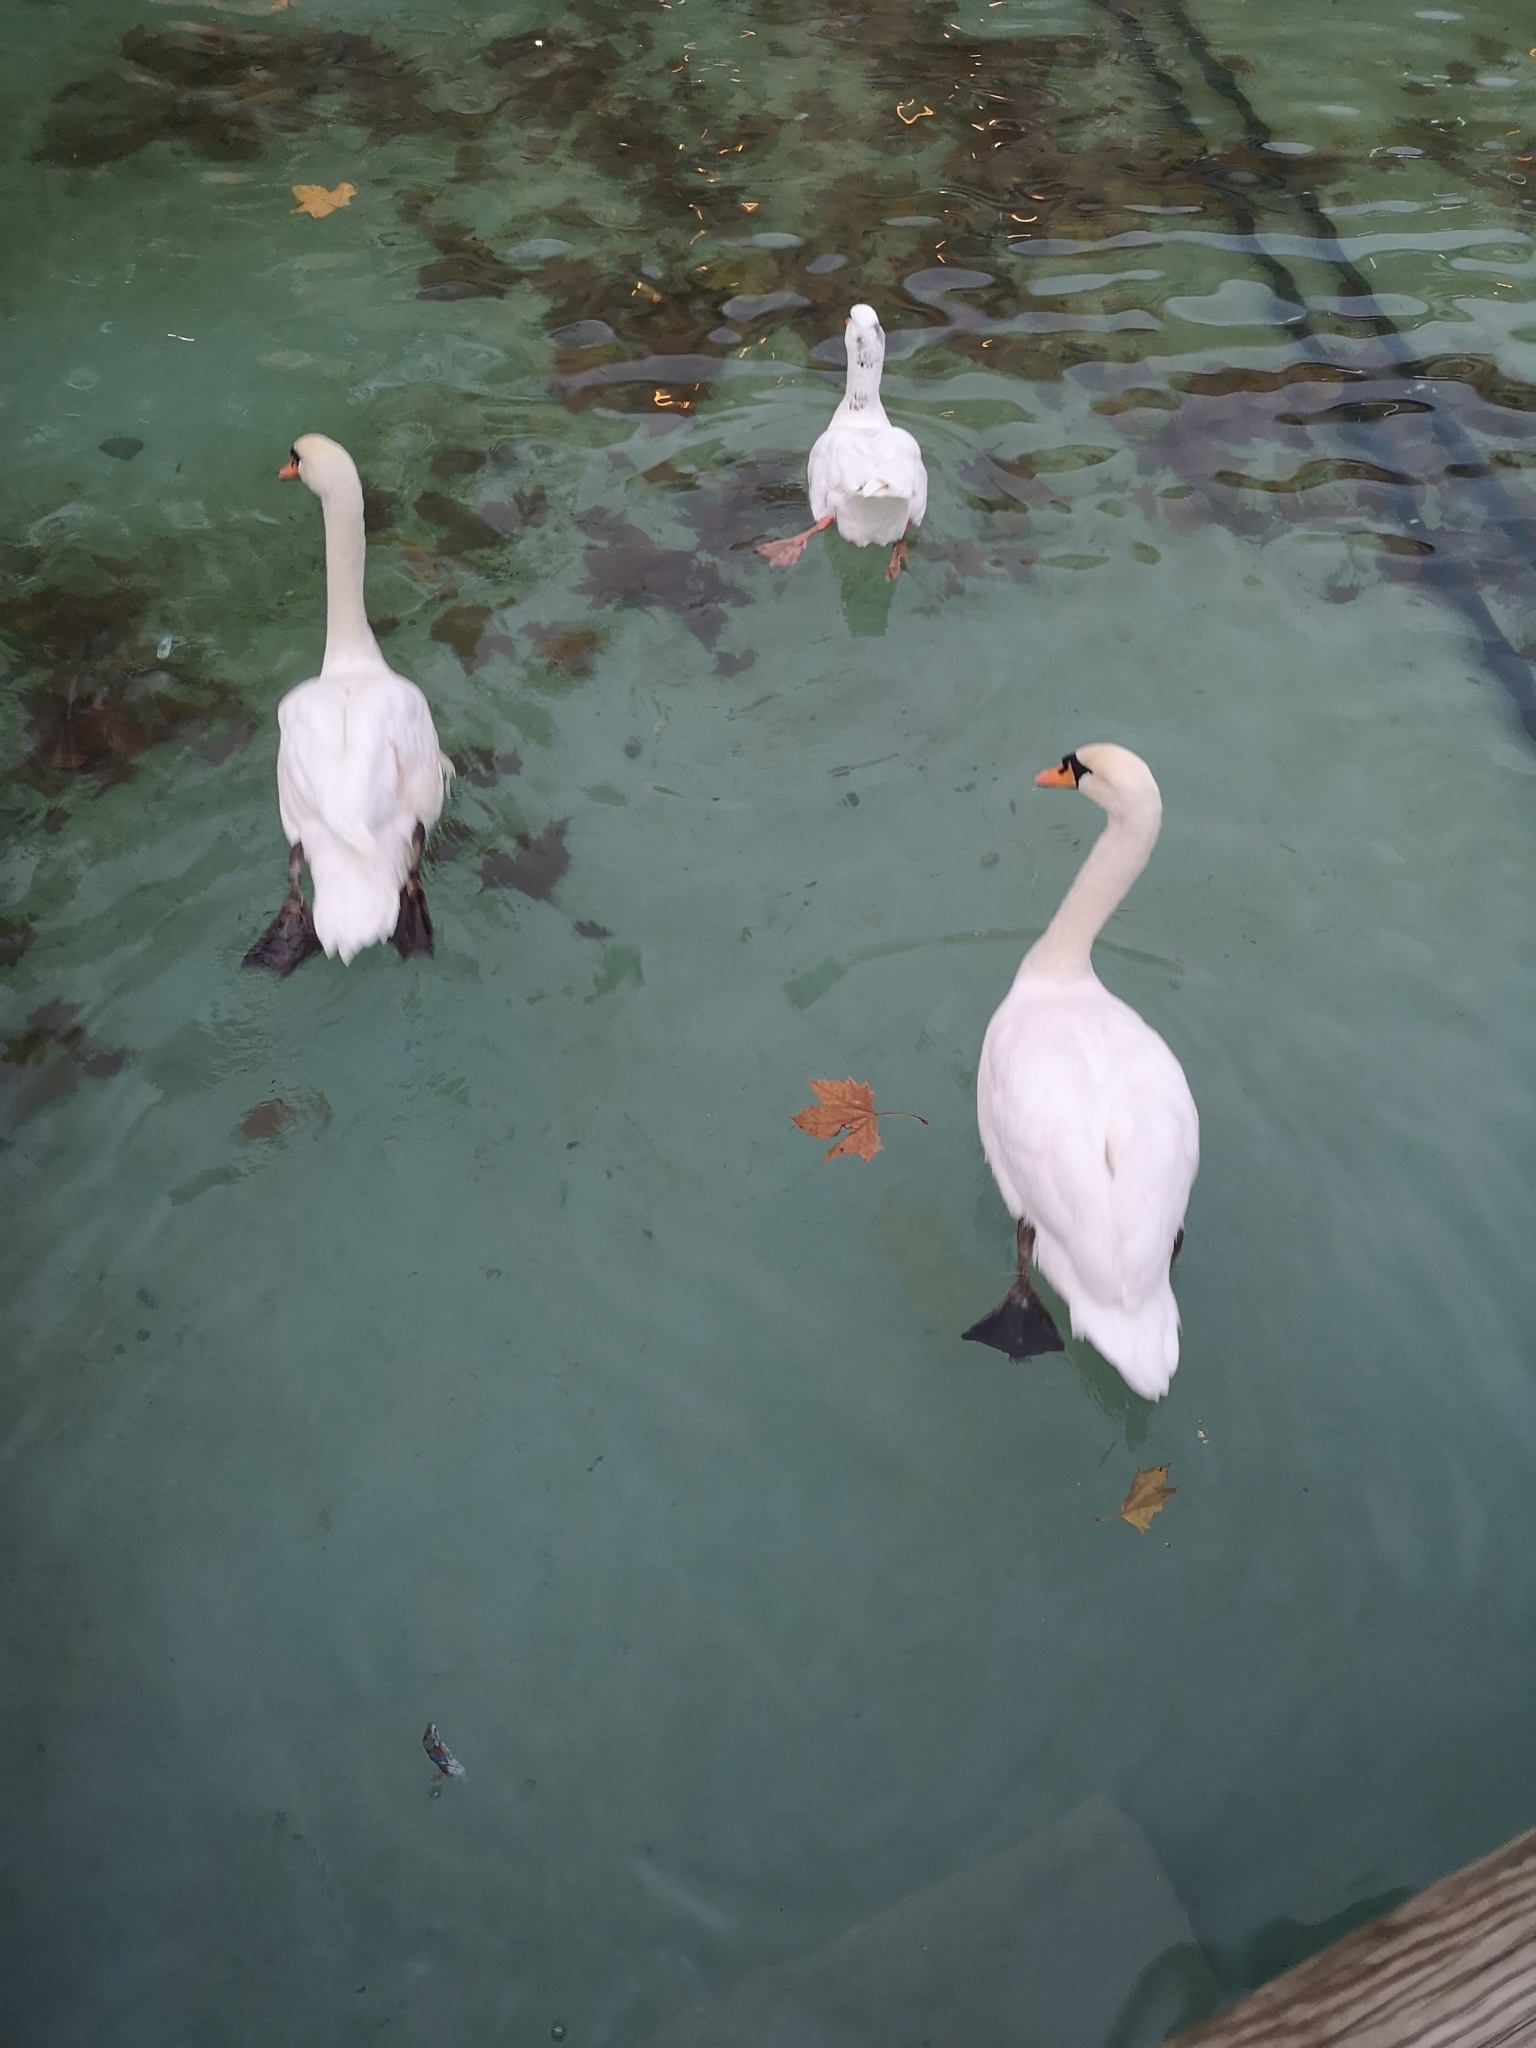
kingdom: Animalia
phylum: Chordata
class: Aves
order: Anseriformes
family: Anatidae
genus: Cygnus
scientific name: Cygnus olor
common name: Mute swan
